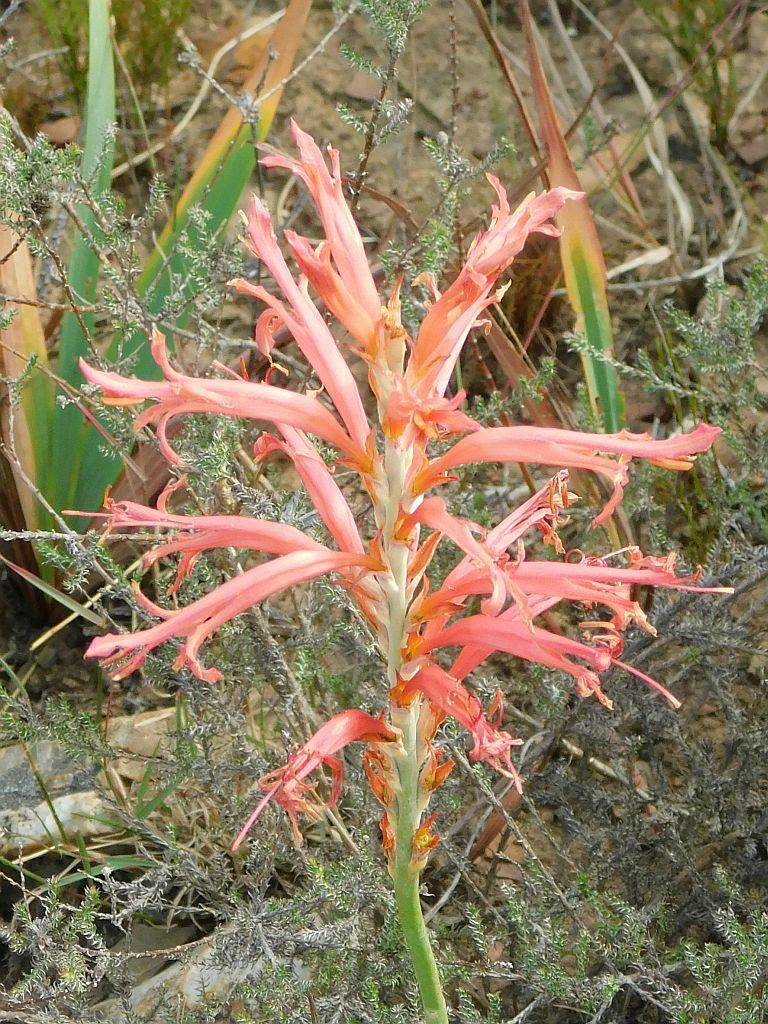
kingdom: Plantae
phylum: Tracheophyta
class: Liliopsida
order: Asparagales
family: Iridaceae
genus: Tritoniopsis
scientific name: Tritoniopsis antholyza
